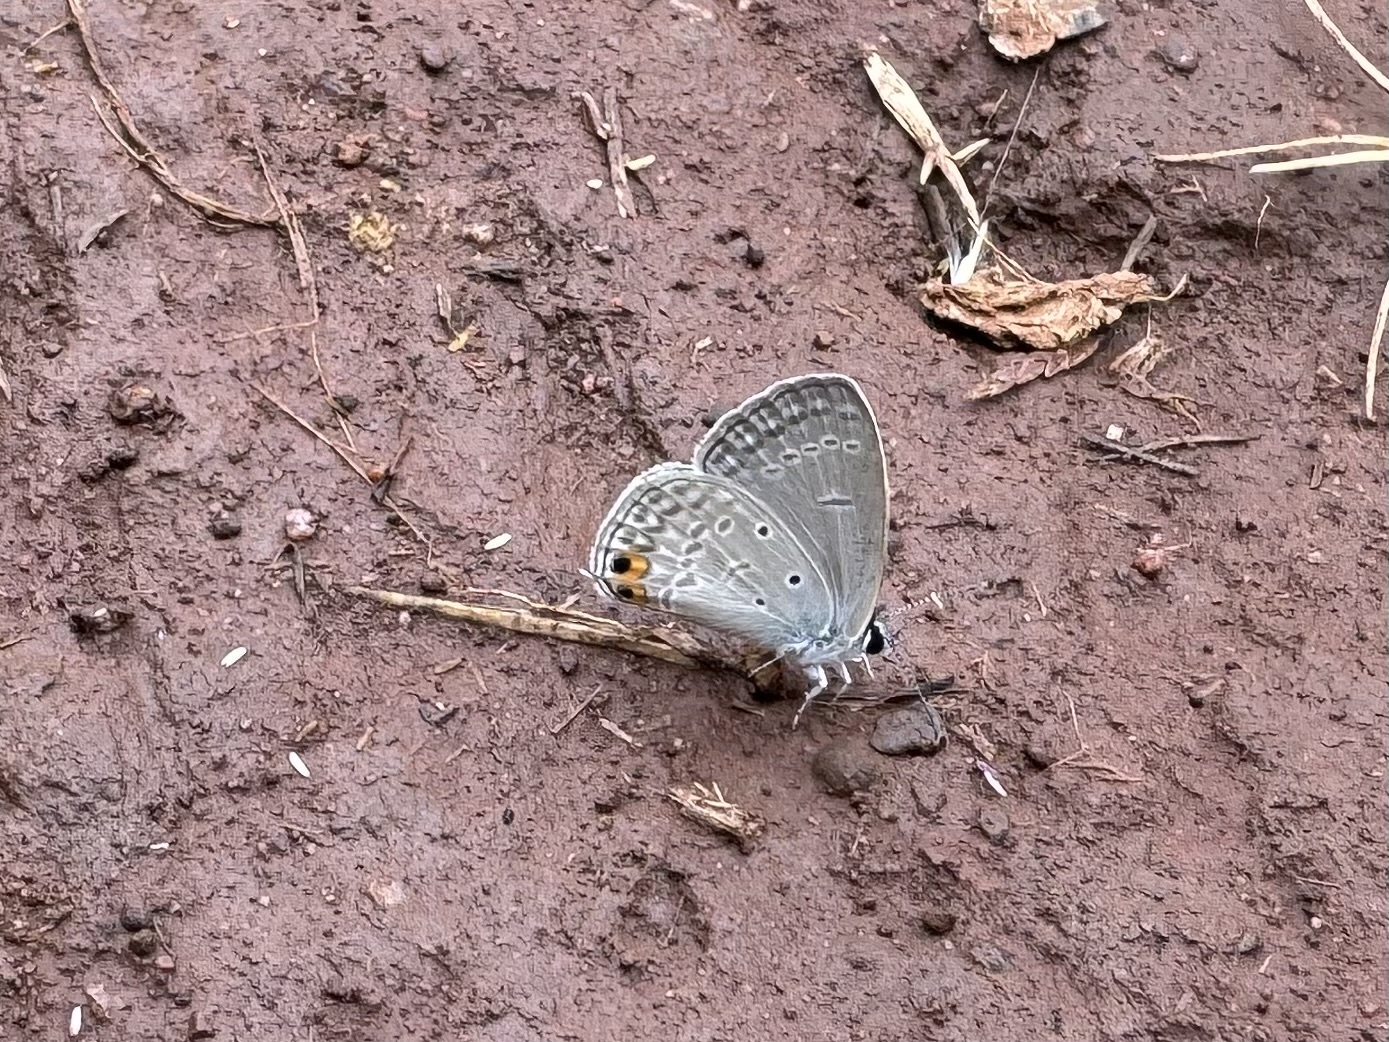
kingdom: Animalia
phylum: Arthropoda
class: Insecta
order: Lepidoptera
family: Lycaenidae
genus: Euchrysops
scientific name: Euchrysops cnejus
